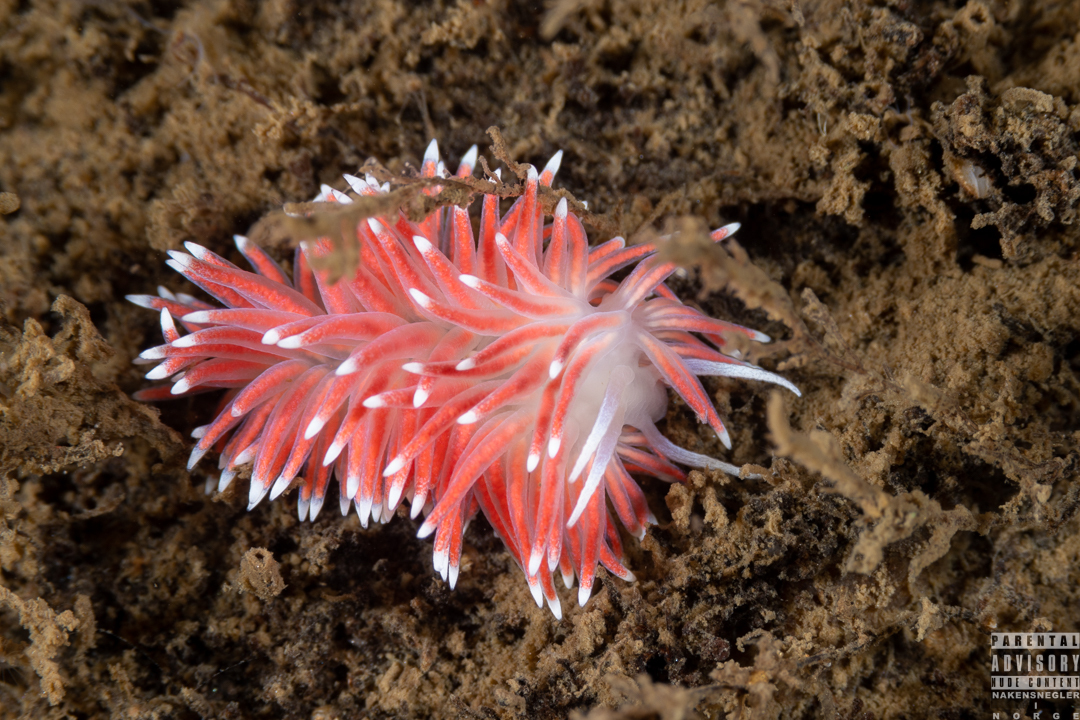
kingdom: Animalia
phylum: Mollusca
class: Gastropoda
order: Nudibranchia
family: Flabellinidae
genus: Carronella
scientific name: Carronella pellucida
